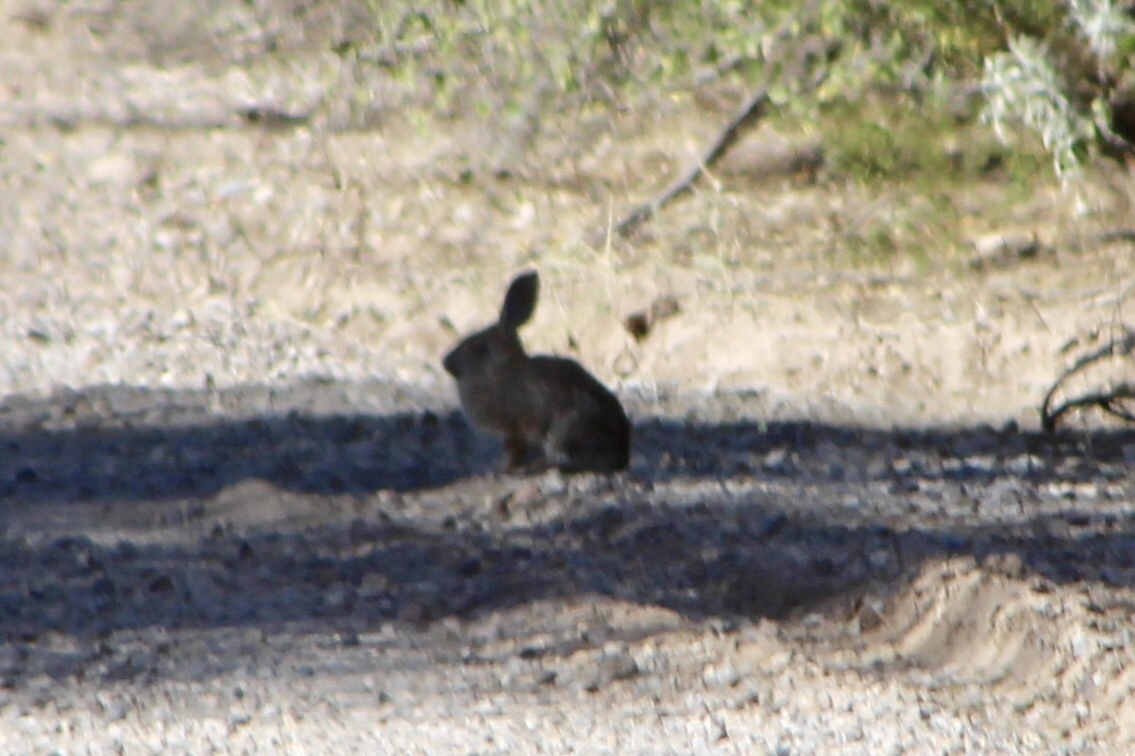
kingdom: Animalia
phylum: Chordata
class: Mammalia
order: Lagomorpha
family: Leporidae
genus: Sylvilagus
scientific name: Sylvilagus audubonii
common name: Desert cottontail
